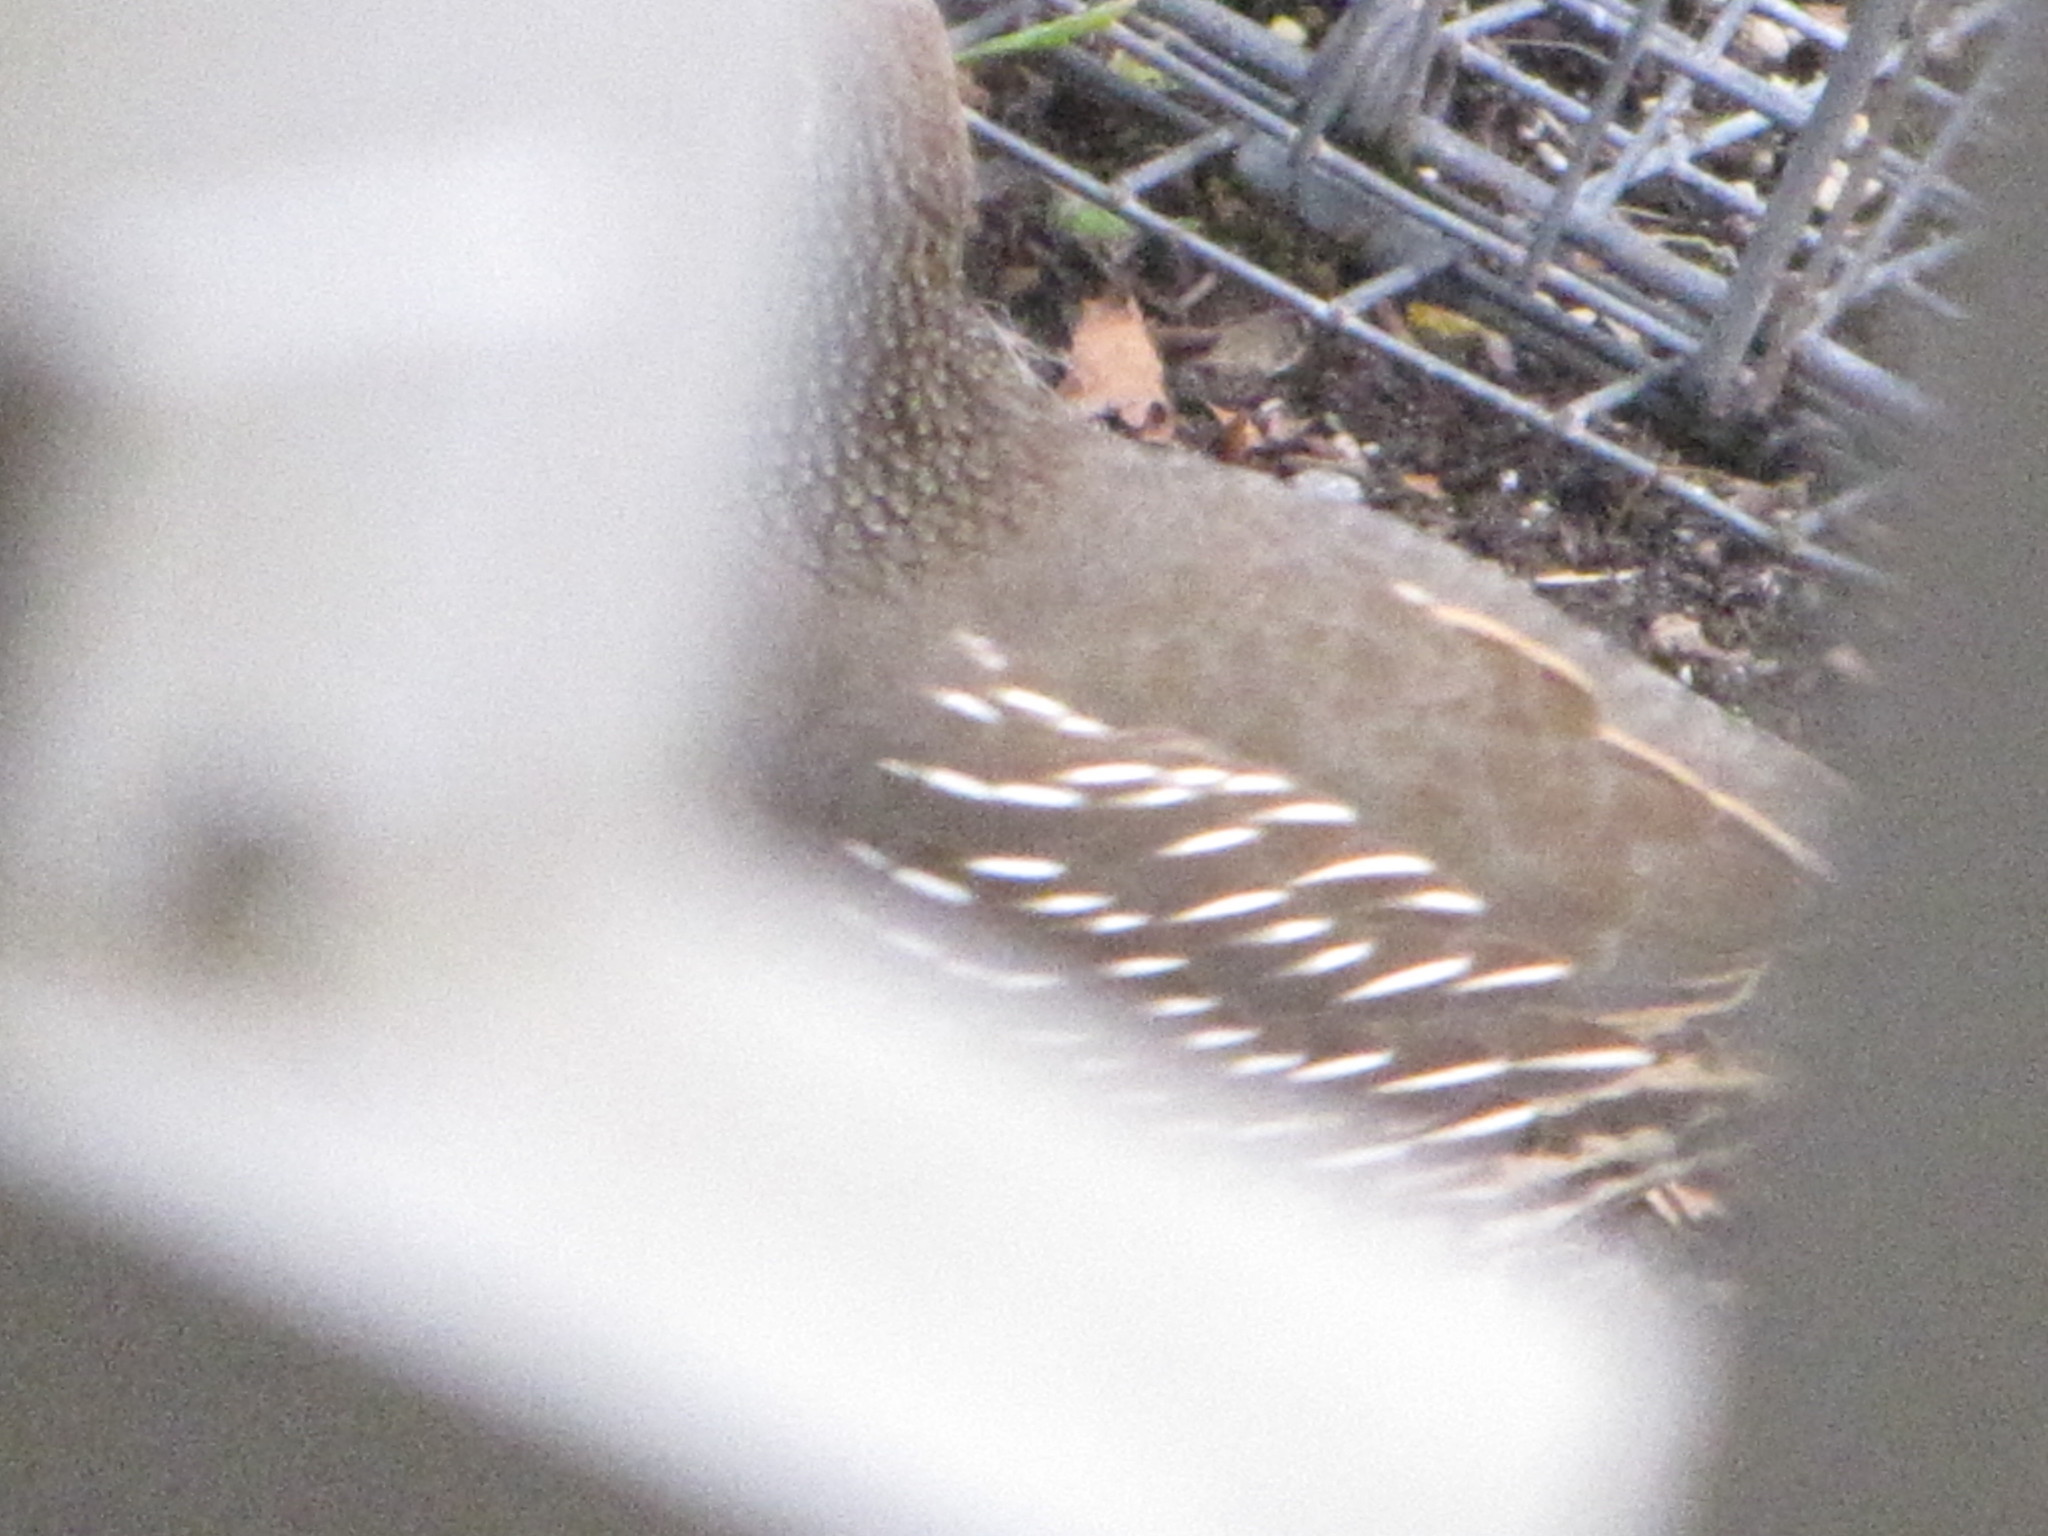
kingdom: Animalia
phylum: Chordata
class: Aves
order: Galliformes
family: Odontophoridae
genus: Callipepla
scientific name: Callipepla californica
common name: California quail
